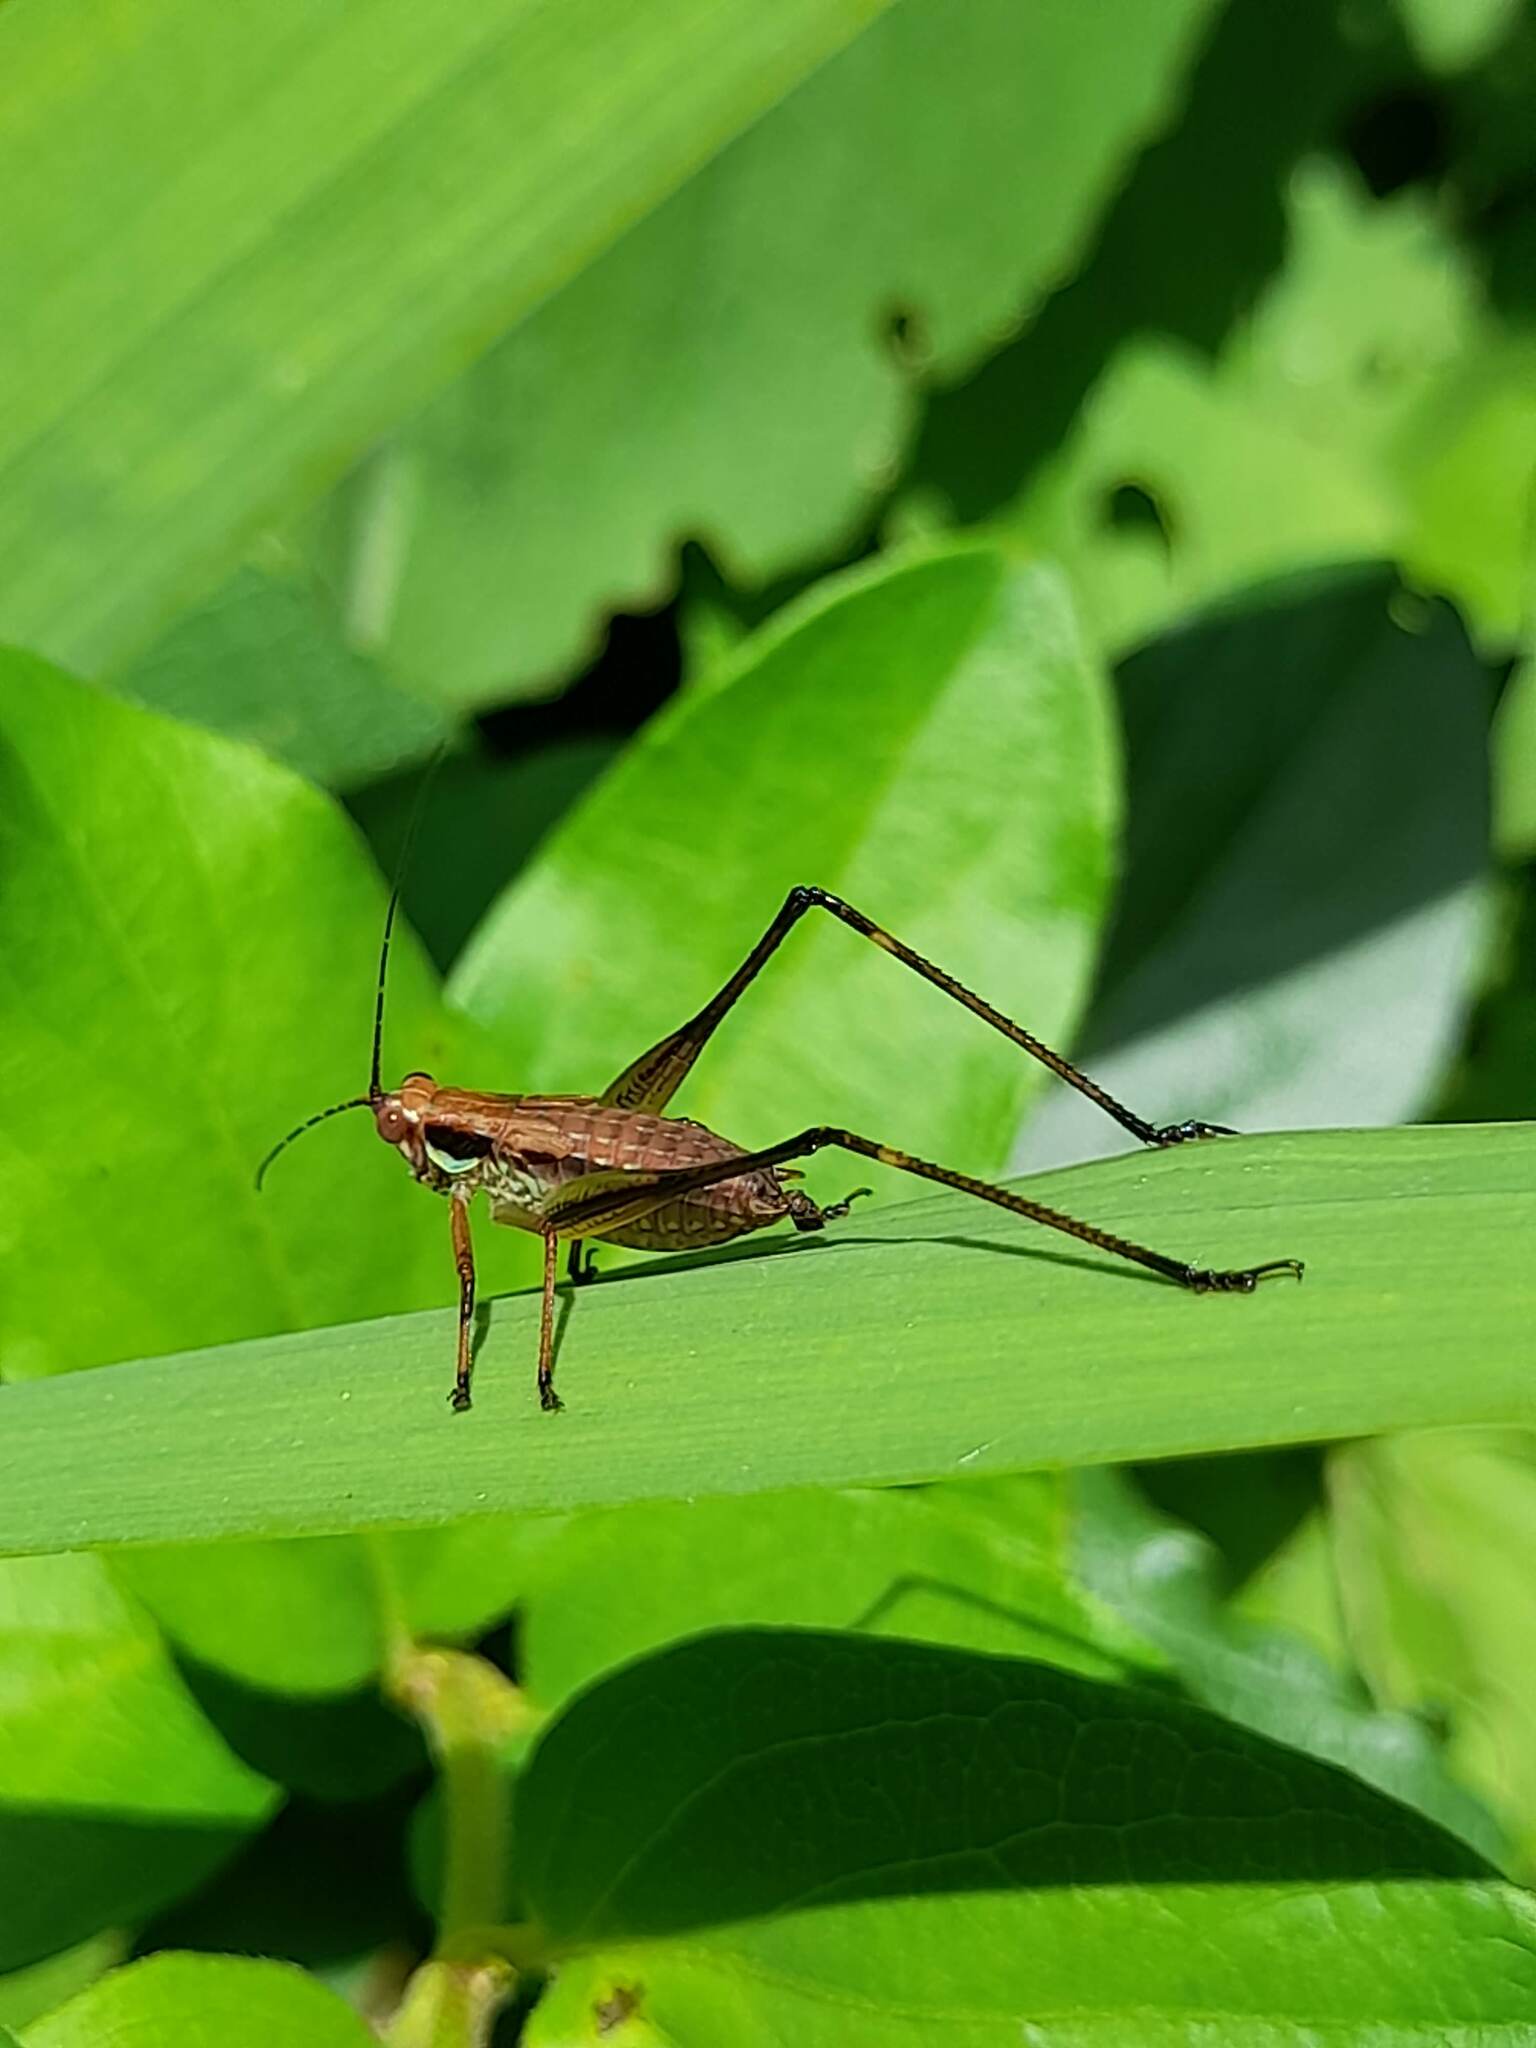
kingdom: Animalia
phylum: Arthropoda
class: Insecta
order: Orthoptera
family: Tettigoniidae
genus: Theudoria
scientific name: Theudoria melanocnemis
